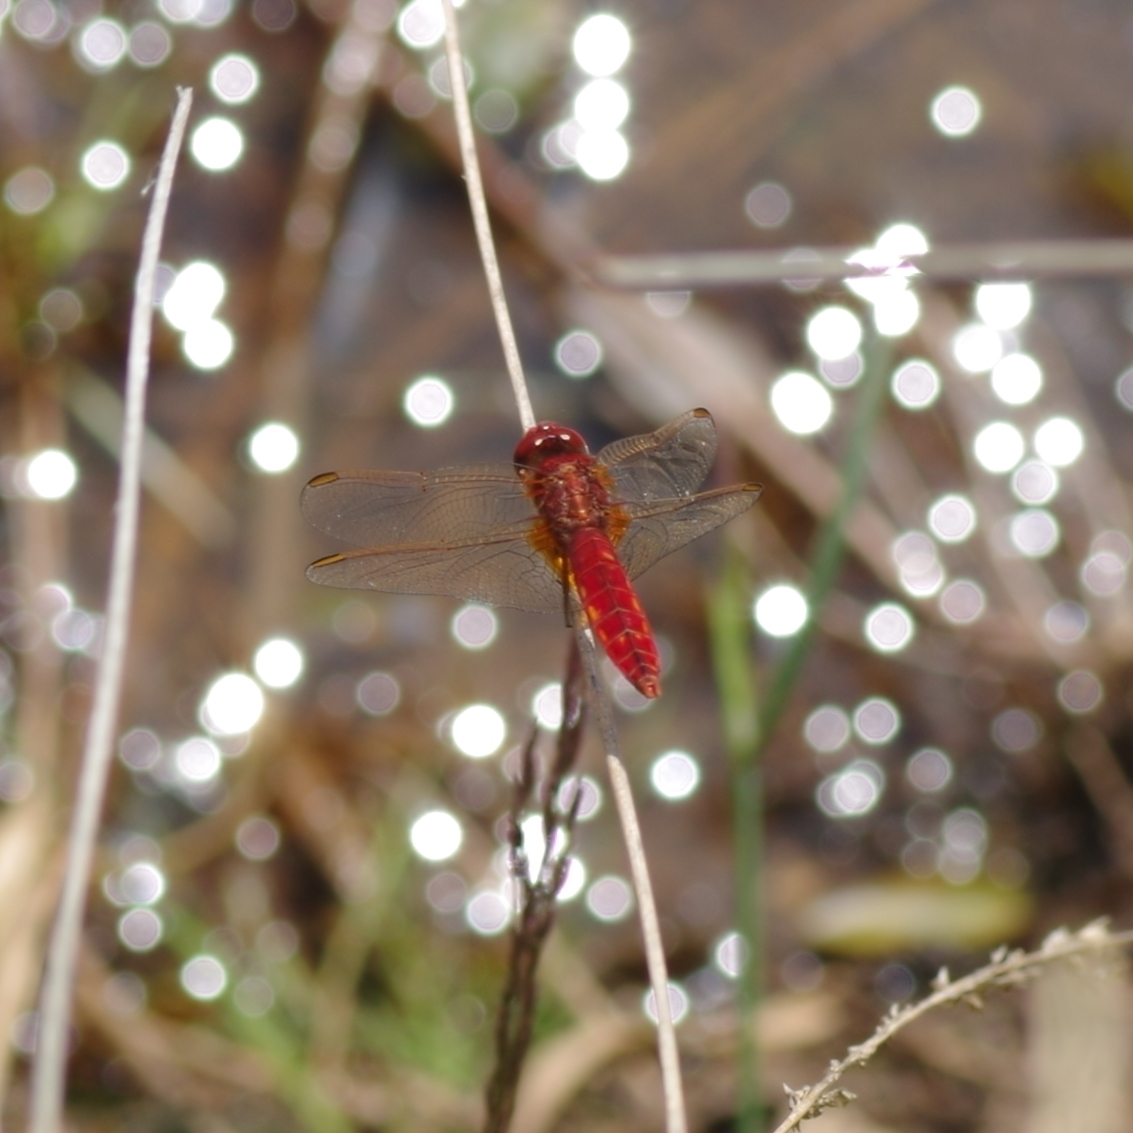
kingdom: Animalia
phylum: Arthropoda
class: Insecta
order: Odonata
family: Libellulidae
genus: Crocothemis
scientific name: Crocothemis erythraea
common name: Scarlet dragonfly
